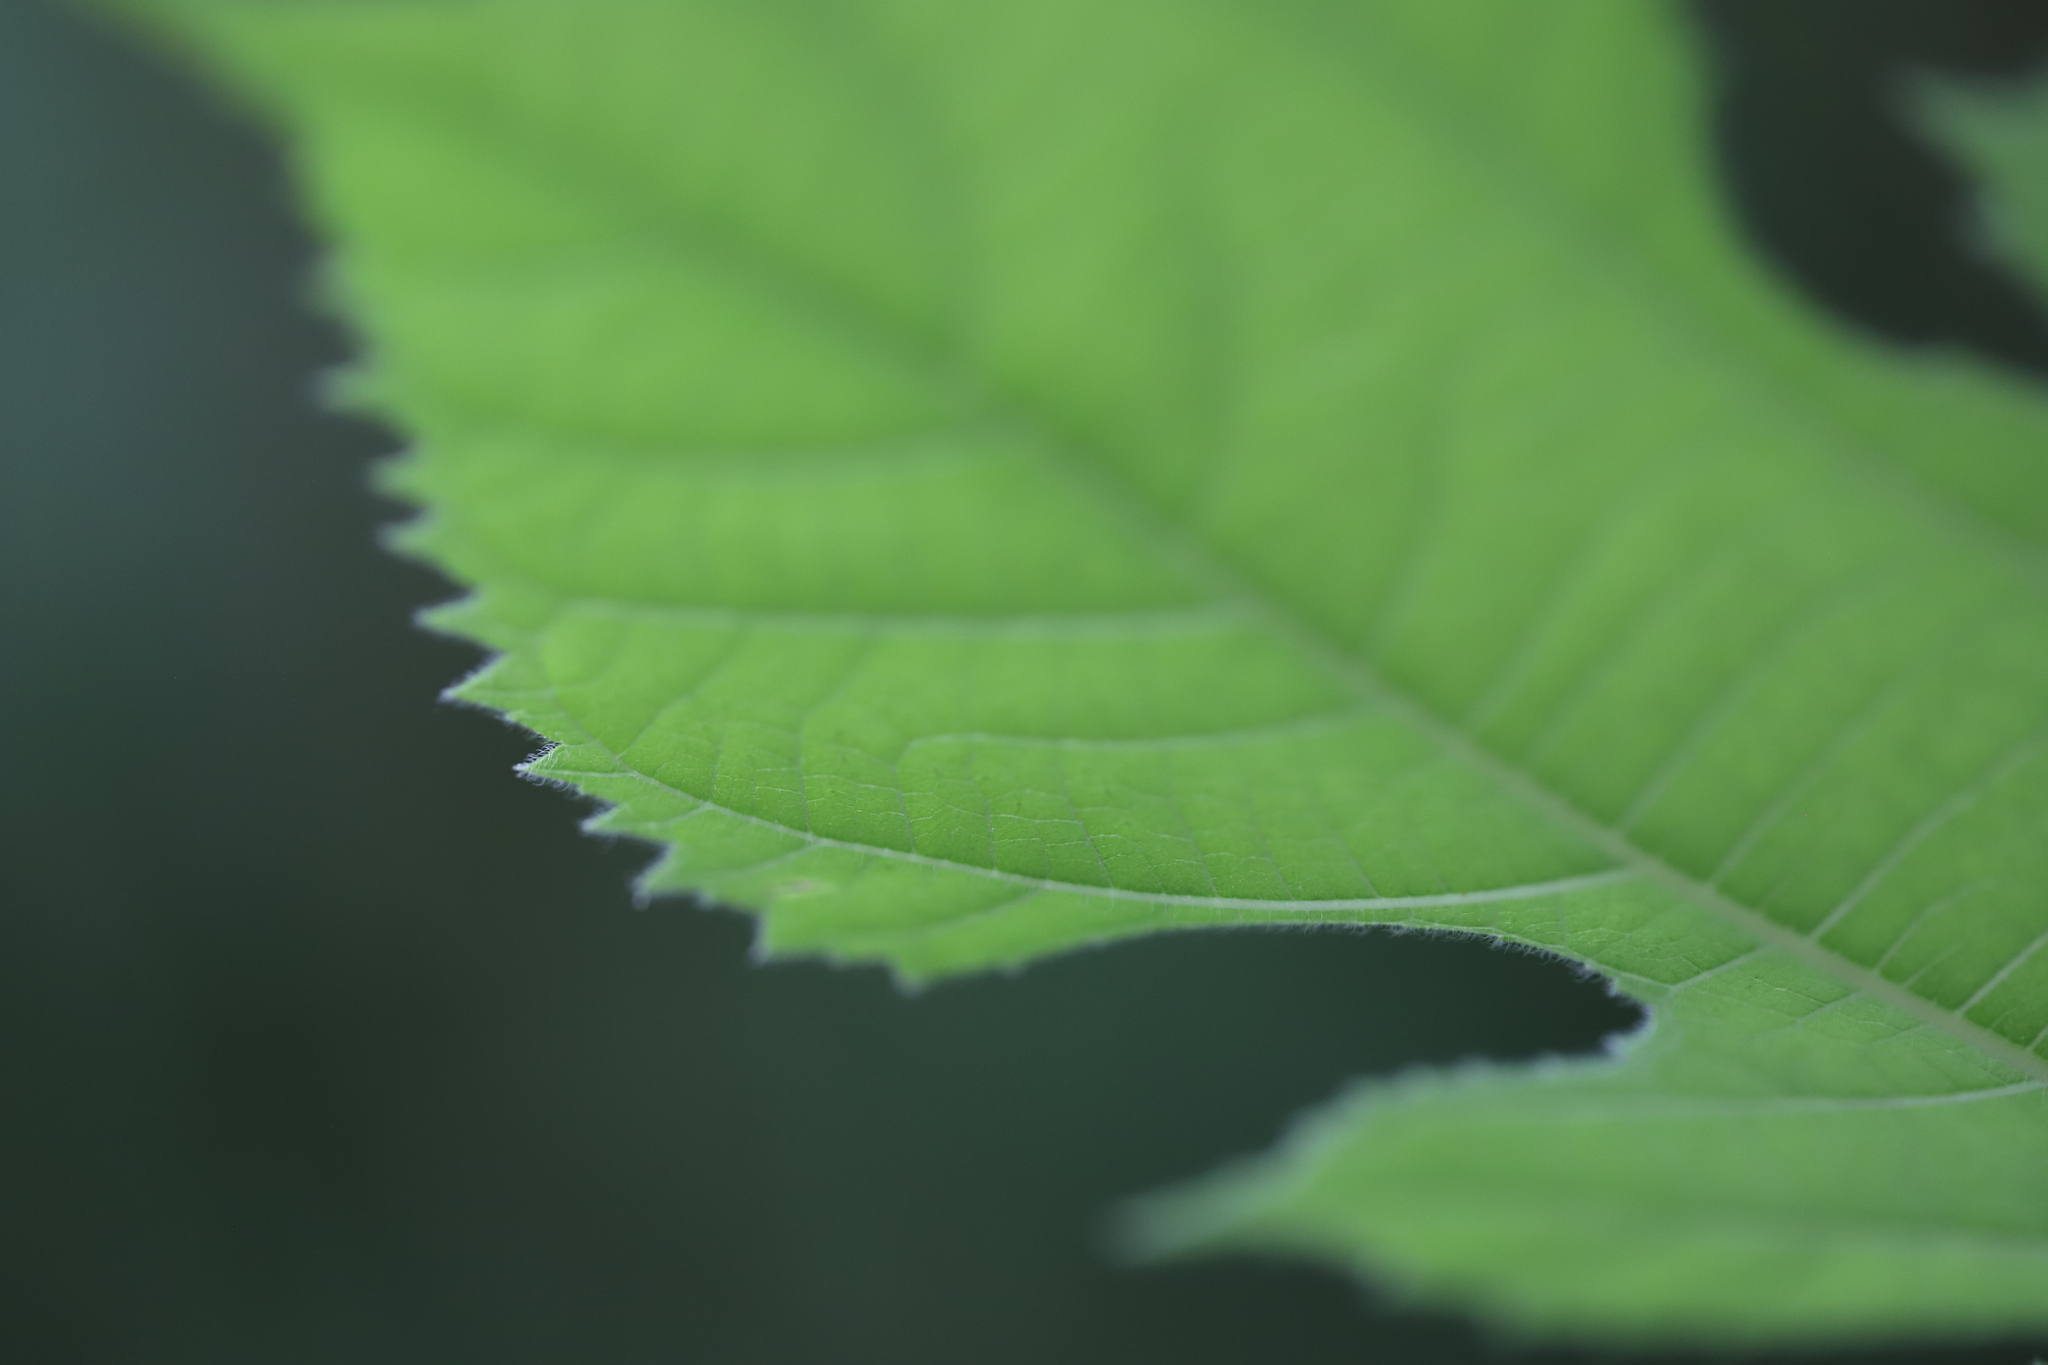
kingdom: Plantae
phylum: Tracheophyta
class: Magnoliopsida
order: Rosales
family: Moraceae
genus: Broussonetia
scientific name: Broussonetia papyrifera
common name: Paper mulberry
